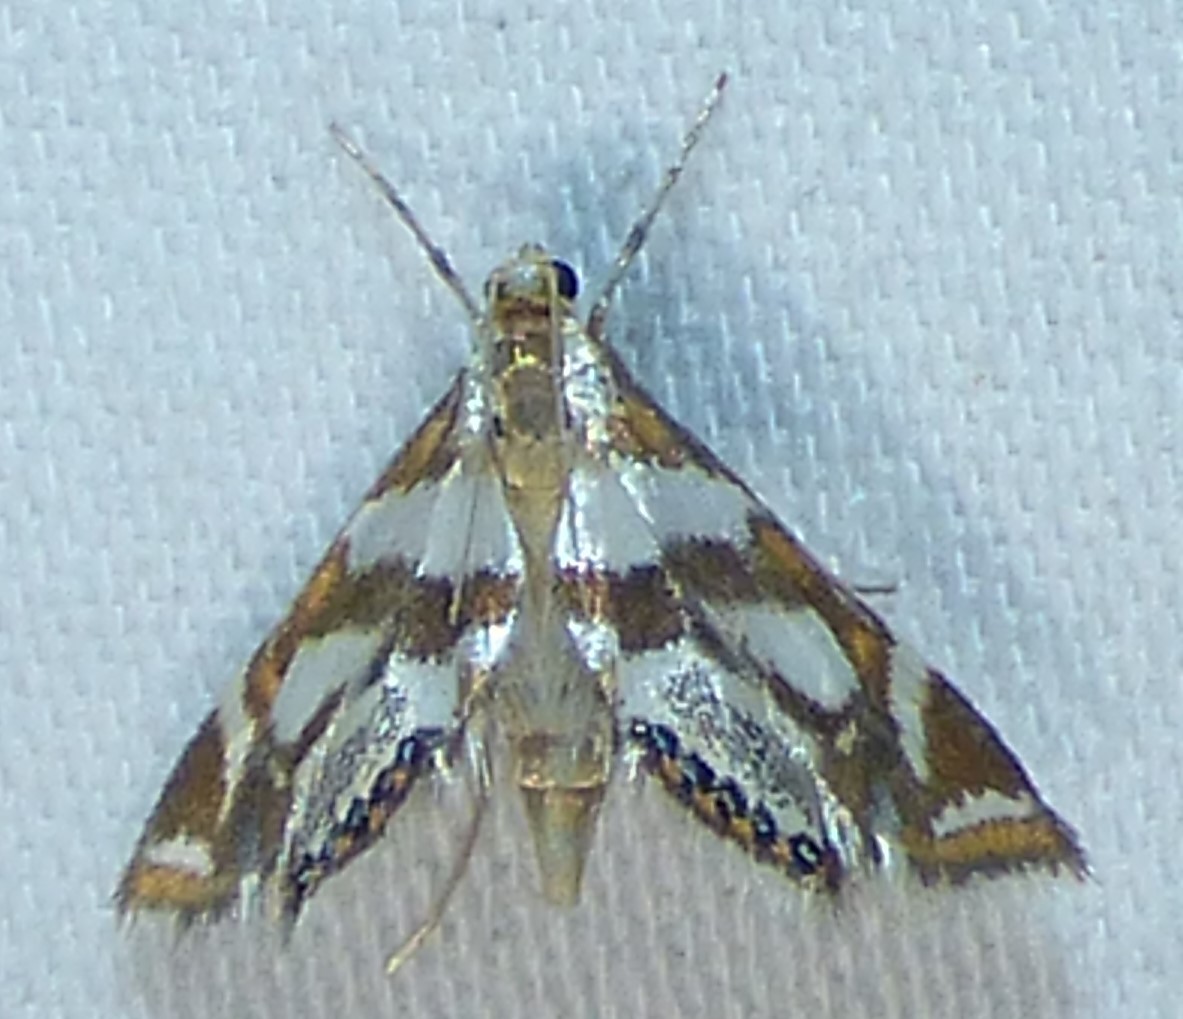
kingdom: Animalia
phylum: Arthropoda
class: Insecta
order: Lepidoptera
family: Crambidae
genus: Chrysendeton
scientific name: Chrysendeton medicinalis
